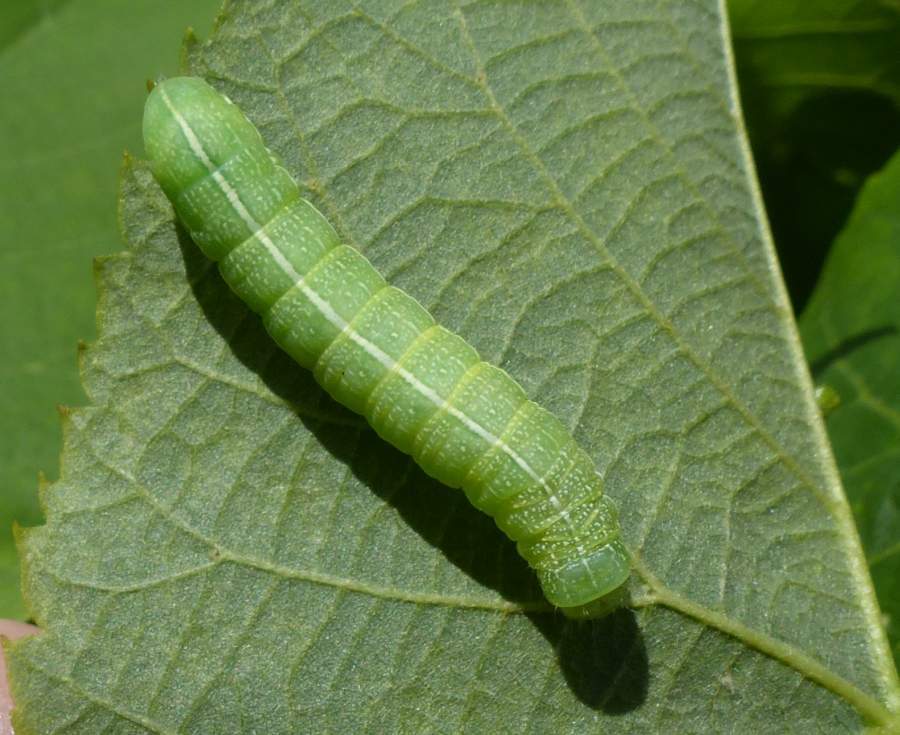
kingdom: Animalia
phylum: Arthropoda
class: Insecta
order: Lepidoptera
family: Noctuidae
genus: Orthosia
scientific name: Orthosia hibisci
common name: Green fruitworm
